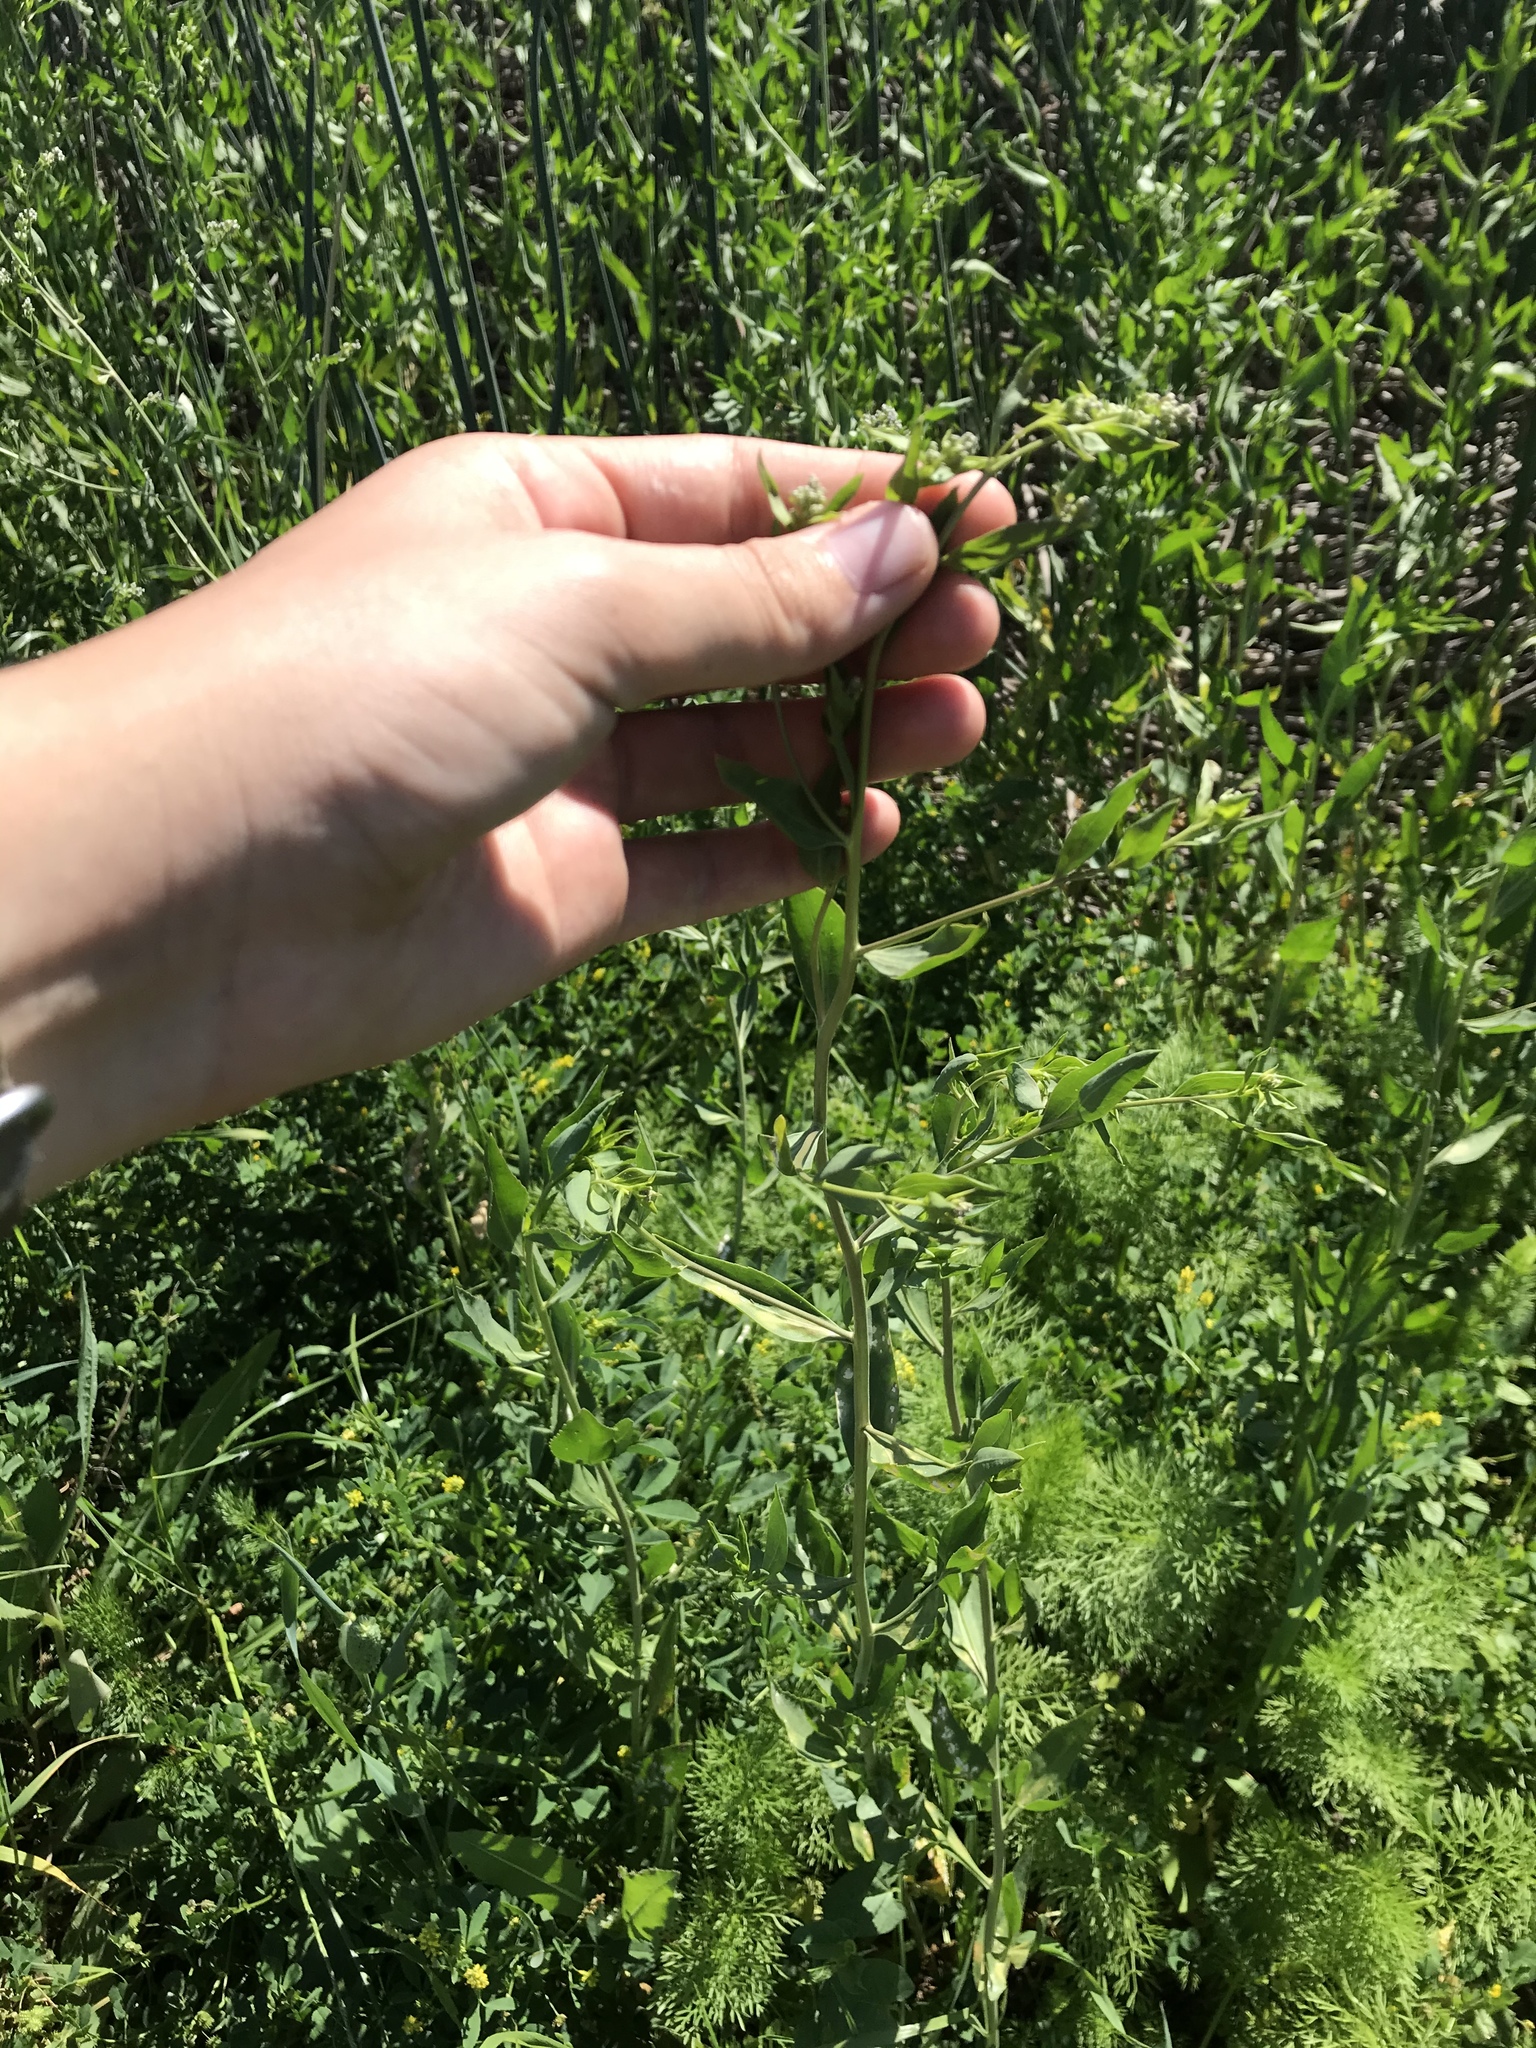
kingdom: Plantae
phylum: Tracheophyta
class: Magnoliopsida
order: Brassicales
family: Brassicaceae
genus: Lepidium
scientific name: Lepidium latifolium
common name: Dittander
